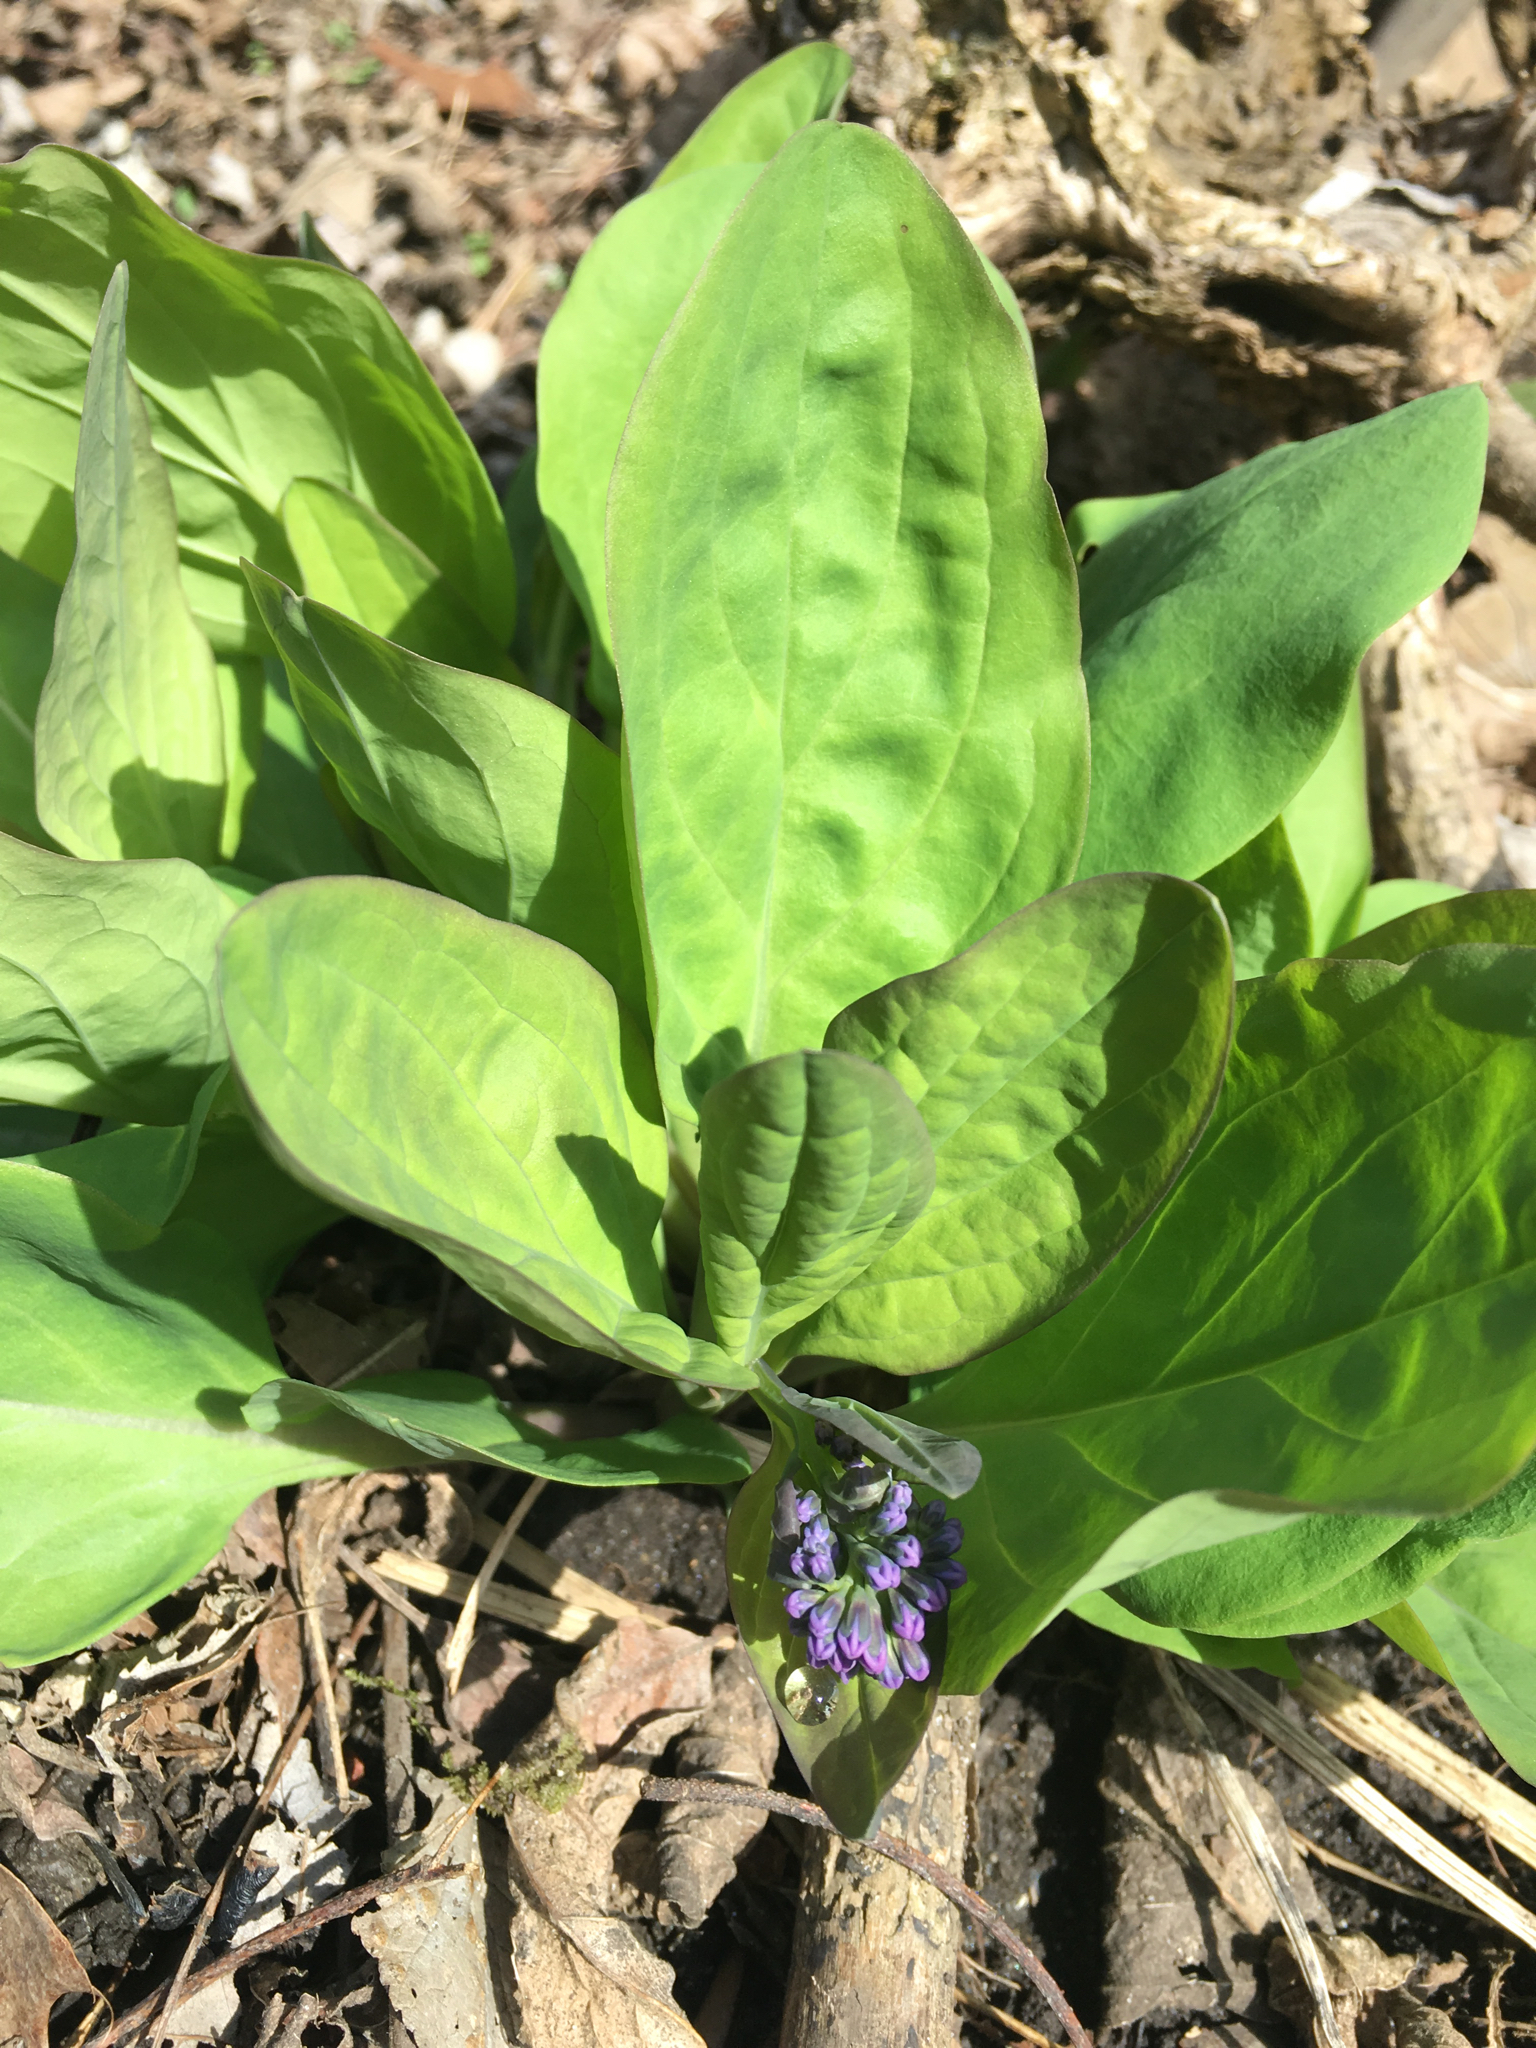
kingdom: Plantae
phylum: Tracheophyta
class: Magnoliopsida
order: Boraginales
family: Boraginaceae
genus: Mertensia
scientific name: Mertensia virginica
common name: Virginia bluebells
